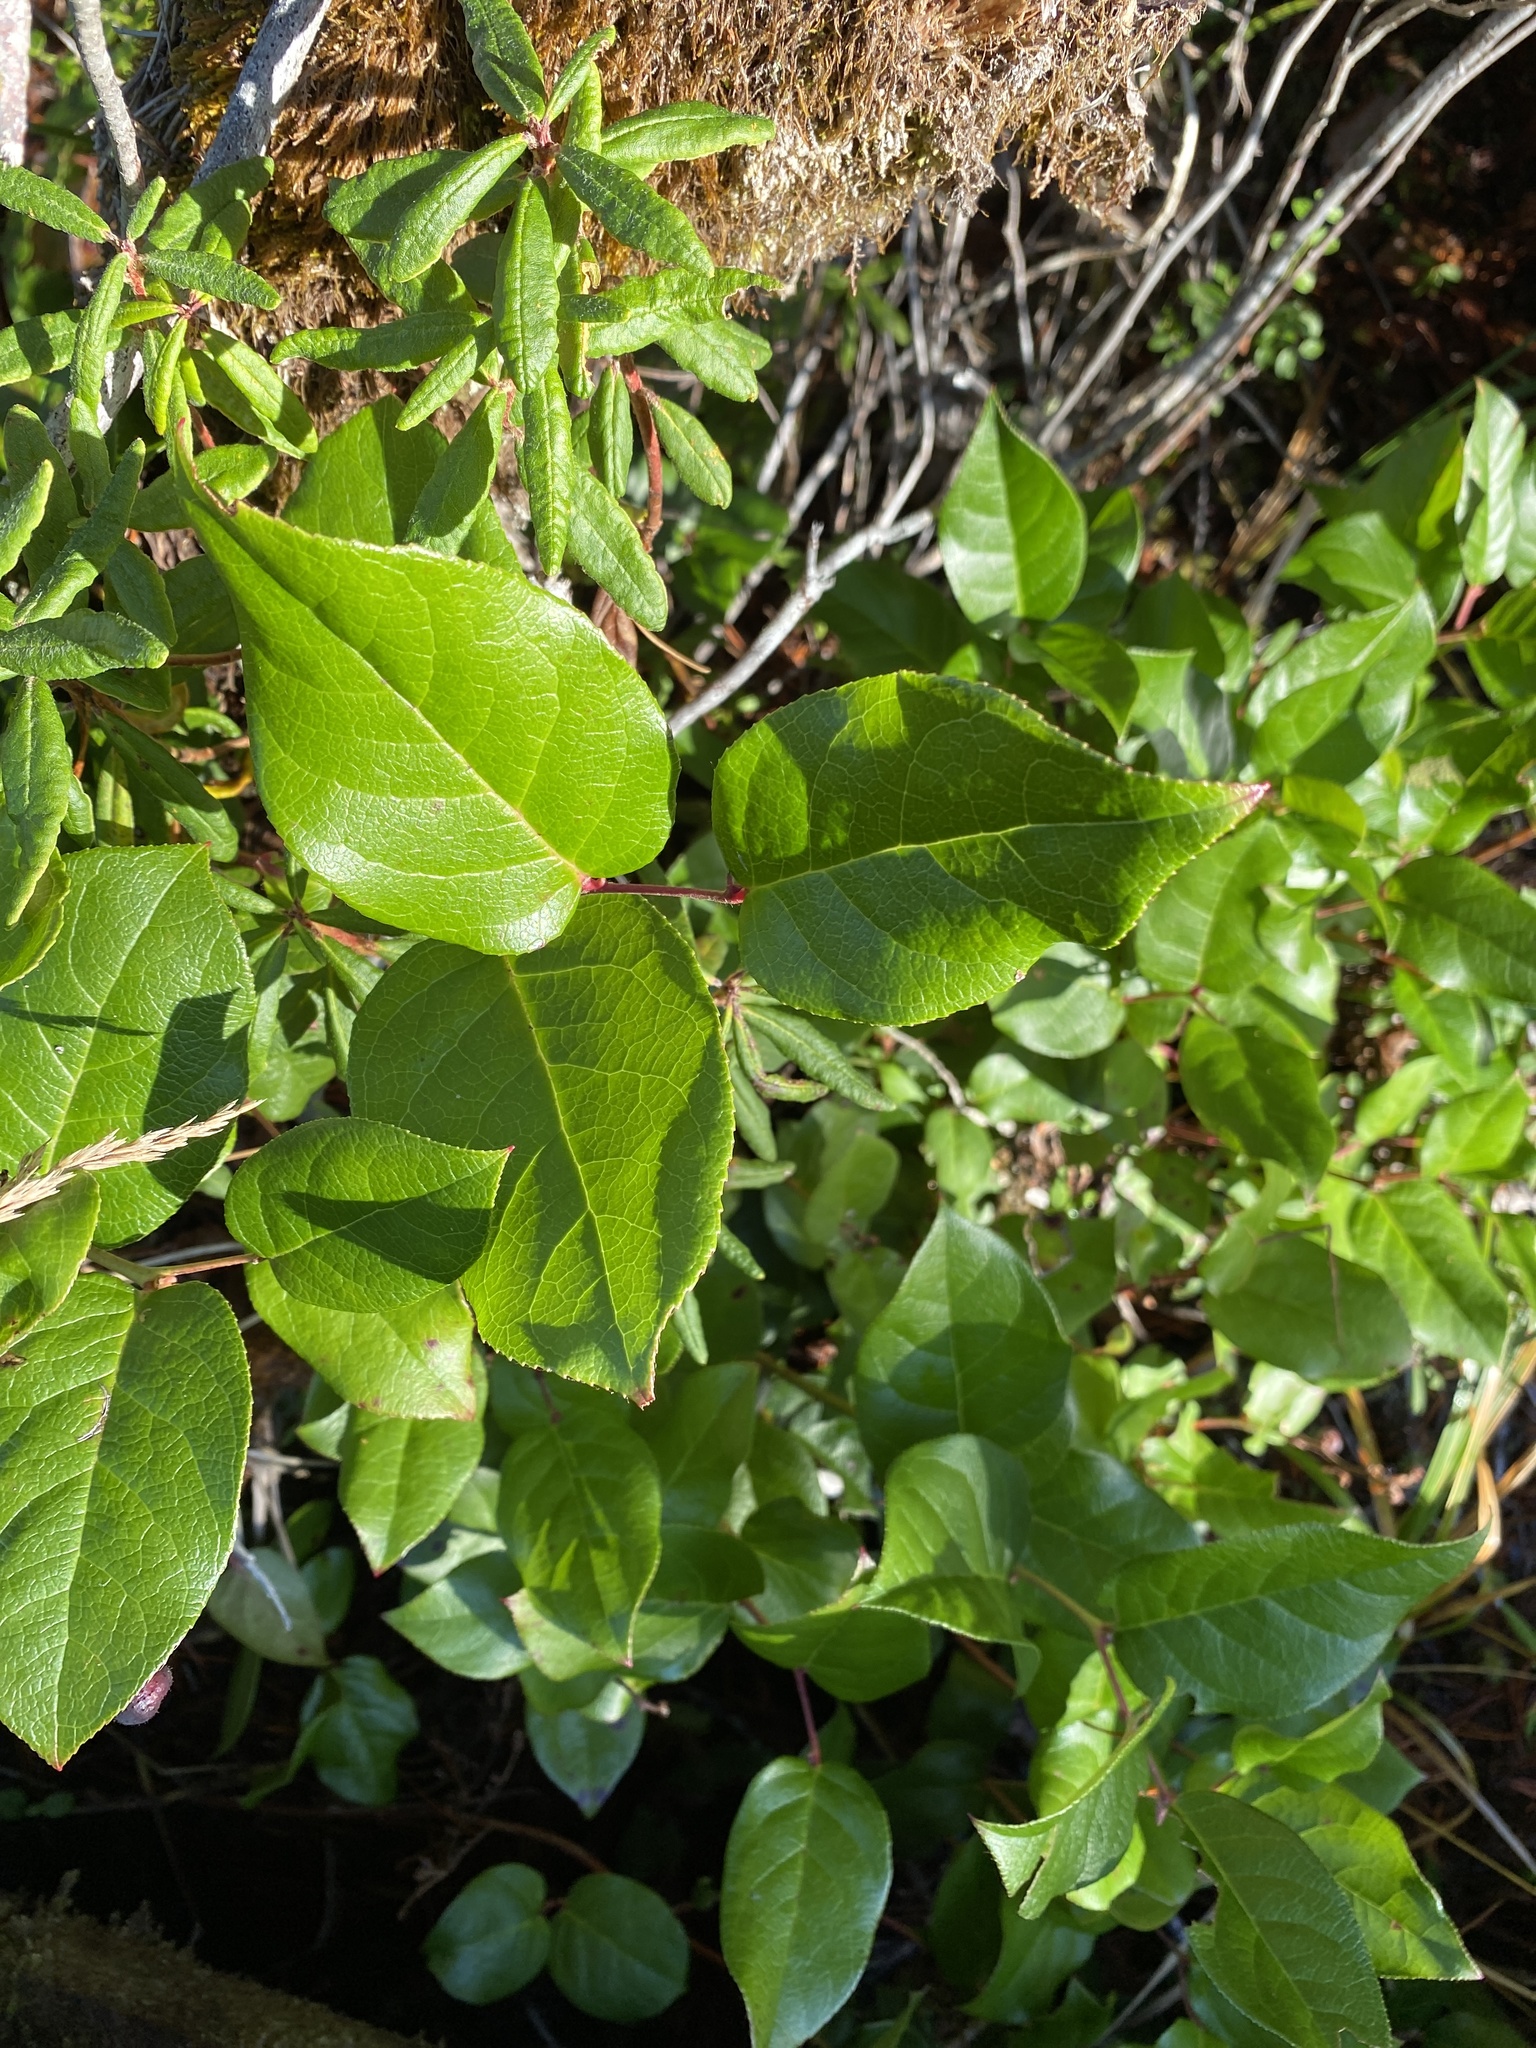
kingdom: Plantae
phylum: Tracheophyta
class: Magnoliopsida
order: Ericales
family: Ericaceae
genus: Gaultheria
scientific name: Gaultheria shallon
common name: Shallon
